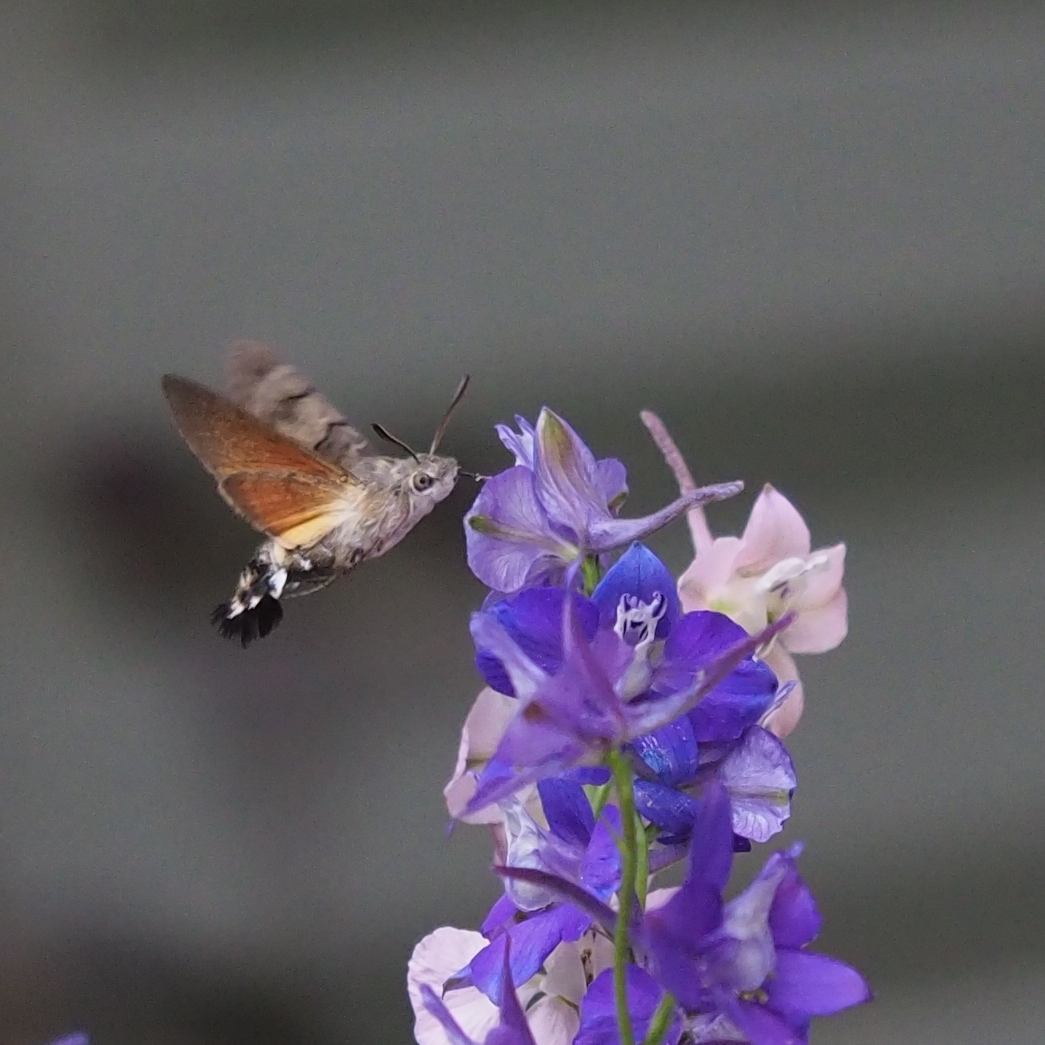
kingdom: Animalia
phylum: Arthropoda
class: Insecta
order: Lepidoptera
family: Sphingidae
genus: Macroglossum
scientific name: Macroglossum stellatarum
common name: Humming-bird hawk-moth
